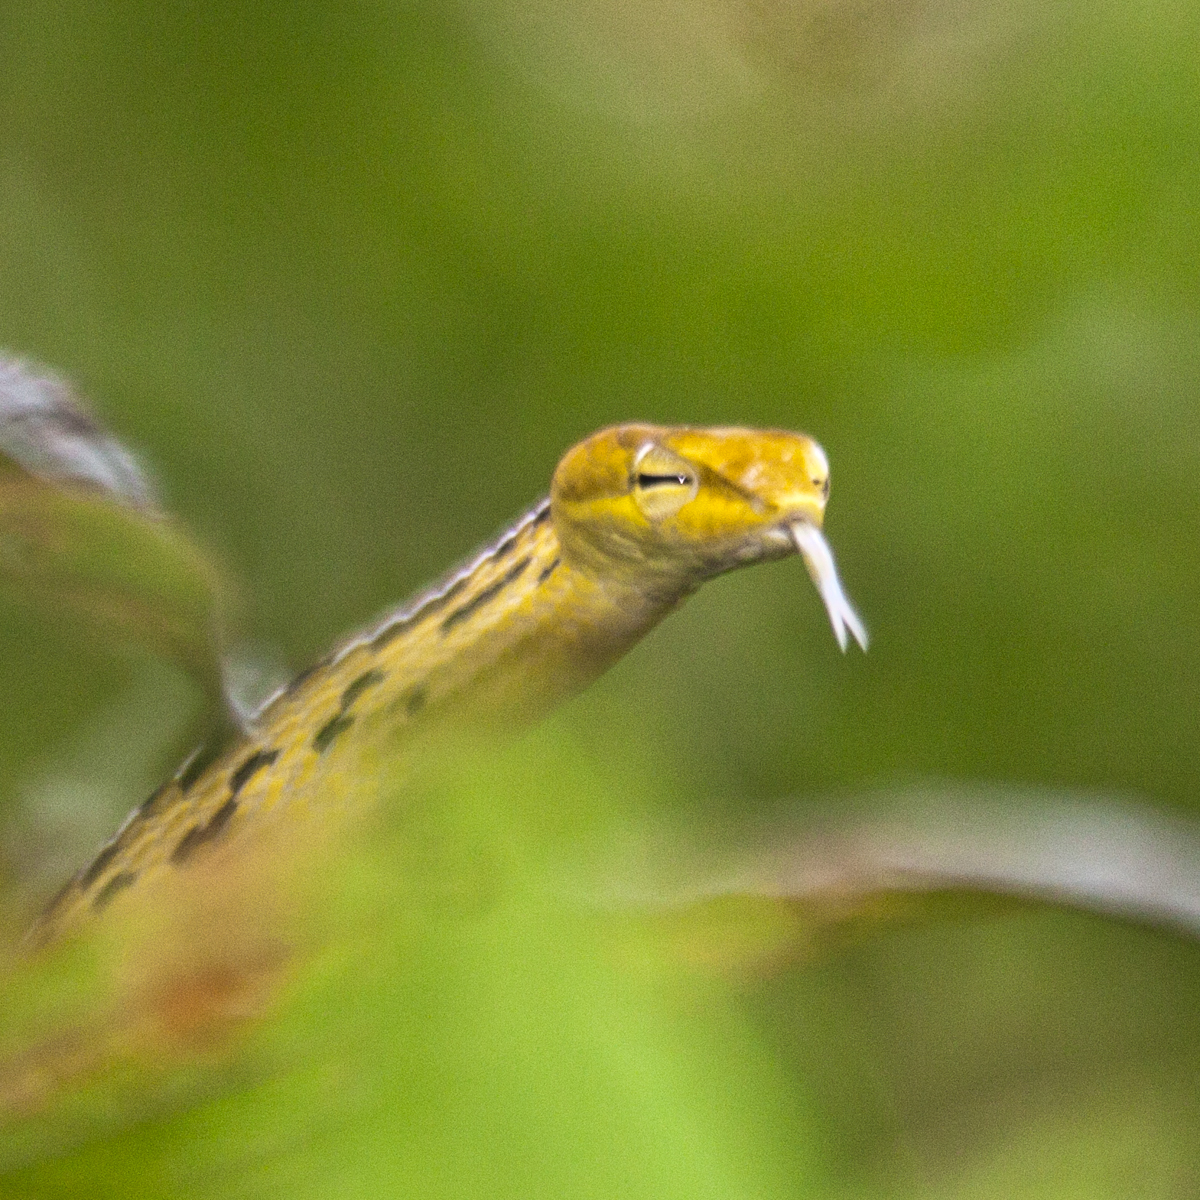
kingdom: Animalia
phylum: Chordata
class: Squamata
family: Colubridae
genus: Ahaetulla
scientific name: Ahaetulla prasina
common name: Oriental whip snake
